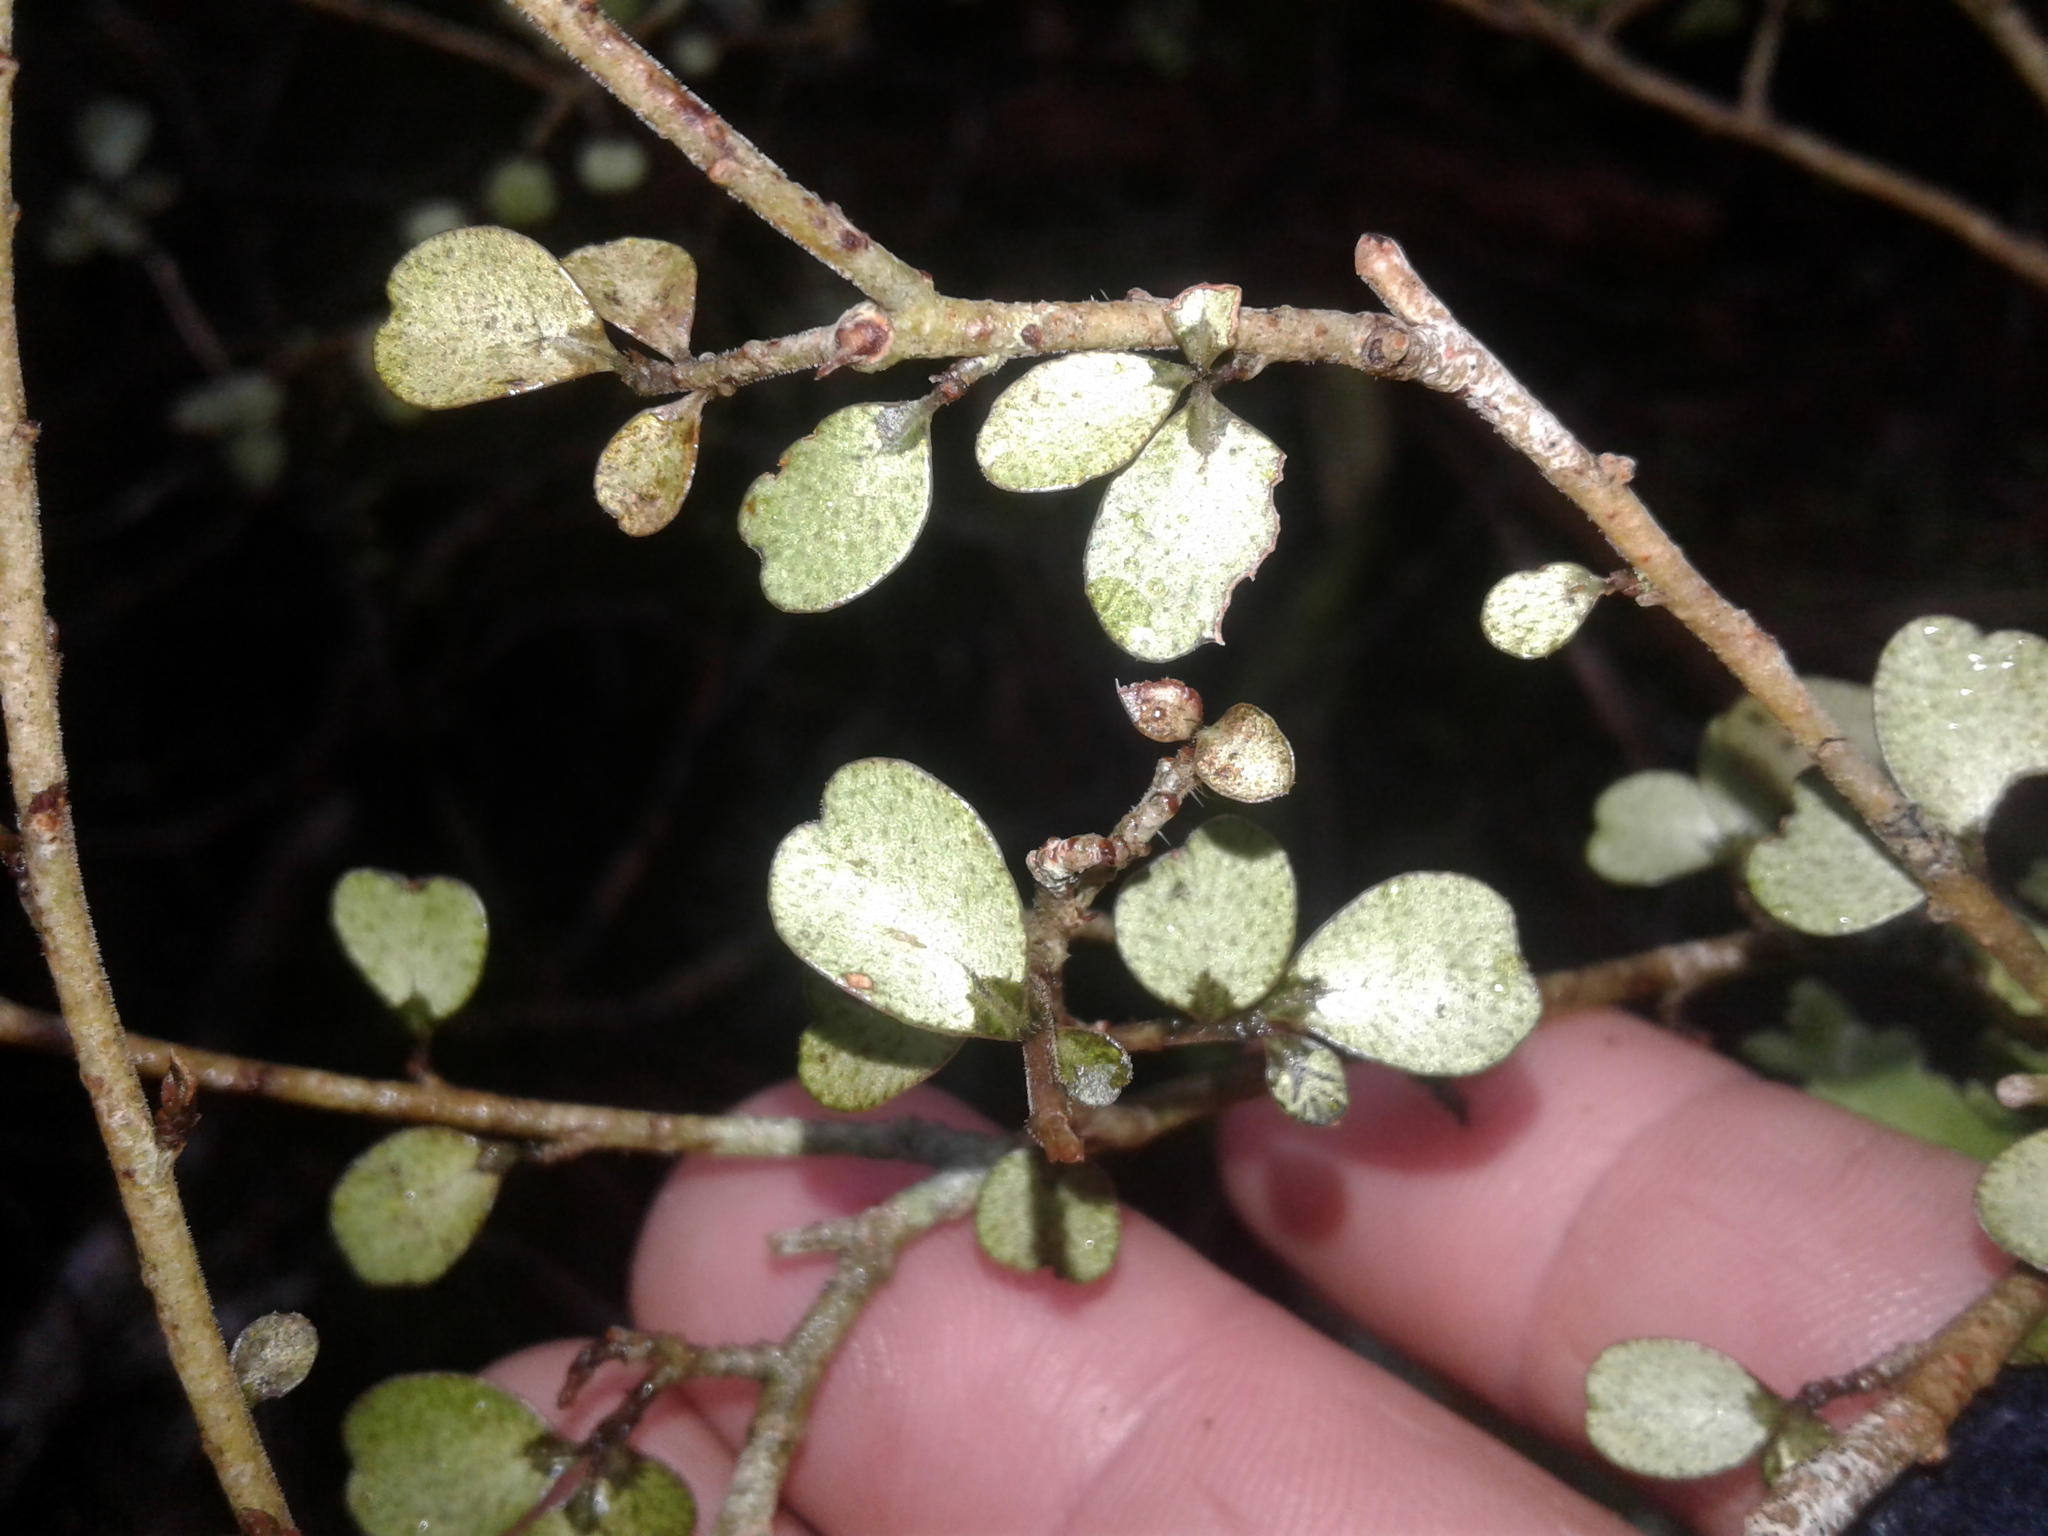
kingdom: Plantae
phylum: Tracheophyta
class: Magnoliopsida
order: Ericales
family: Primulaceae
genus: Myrsine
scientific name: Myrsine divaricata
